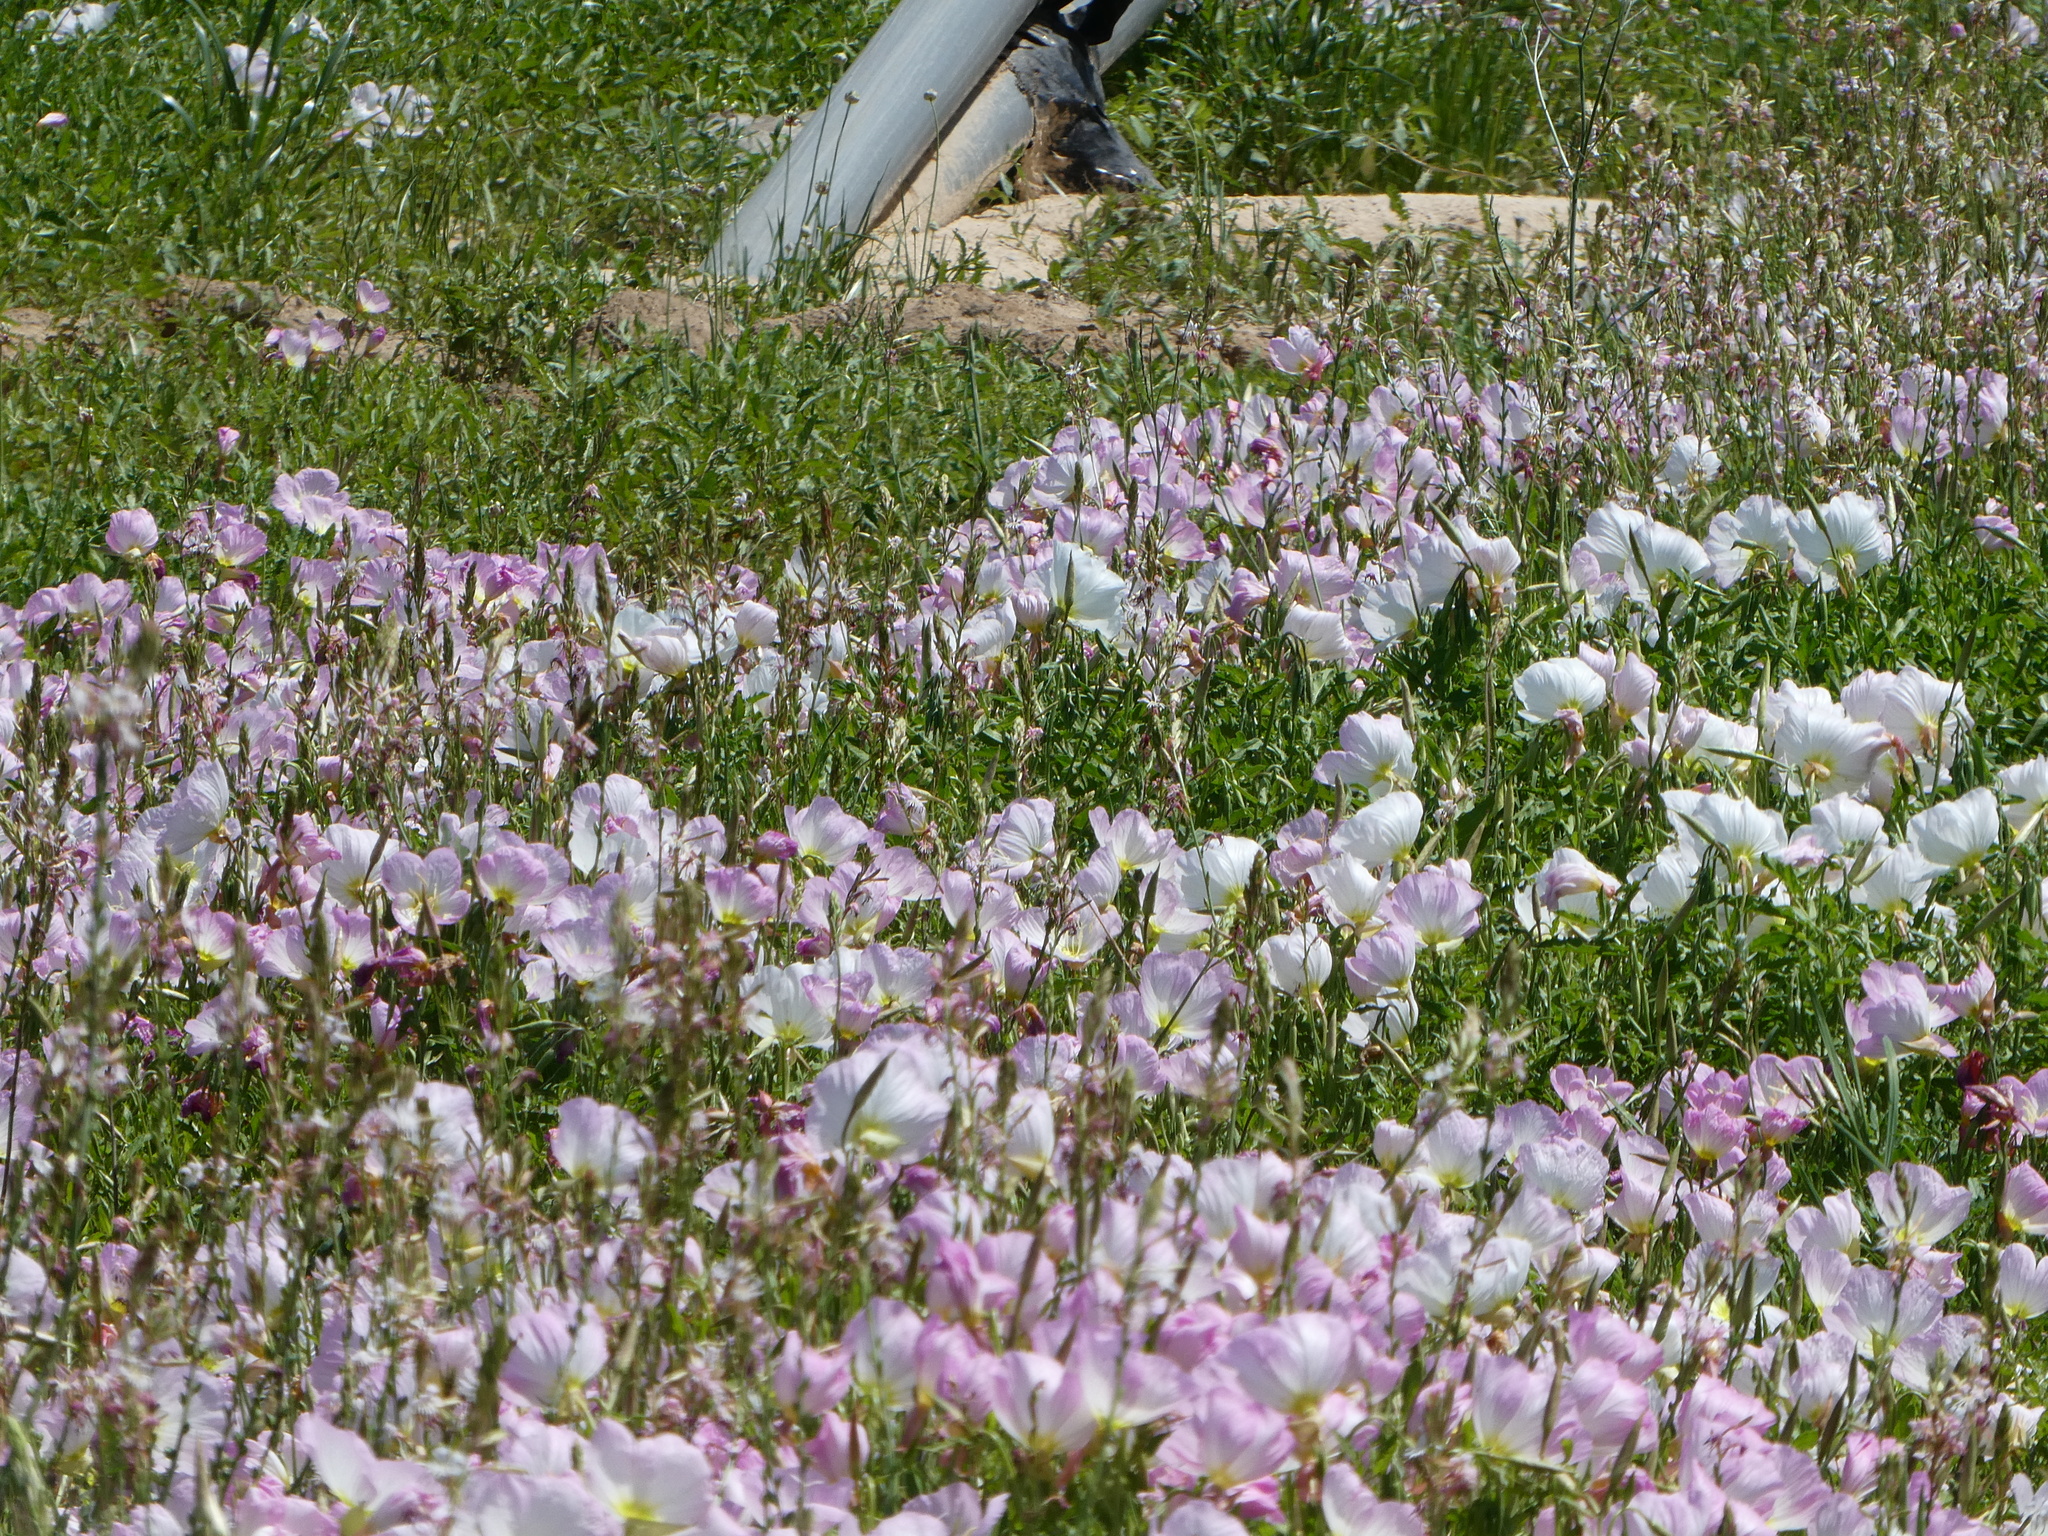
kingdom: Plantae
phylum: Tracheophyta
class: Magnoliopsida
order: Myrtales
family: Onagraceae
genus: Oenothera
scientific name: Oenothera speciosa
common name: White evening-primrose
